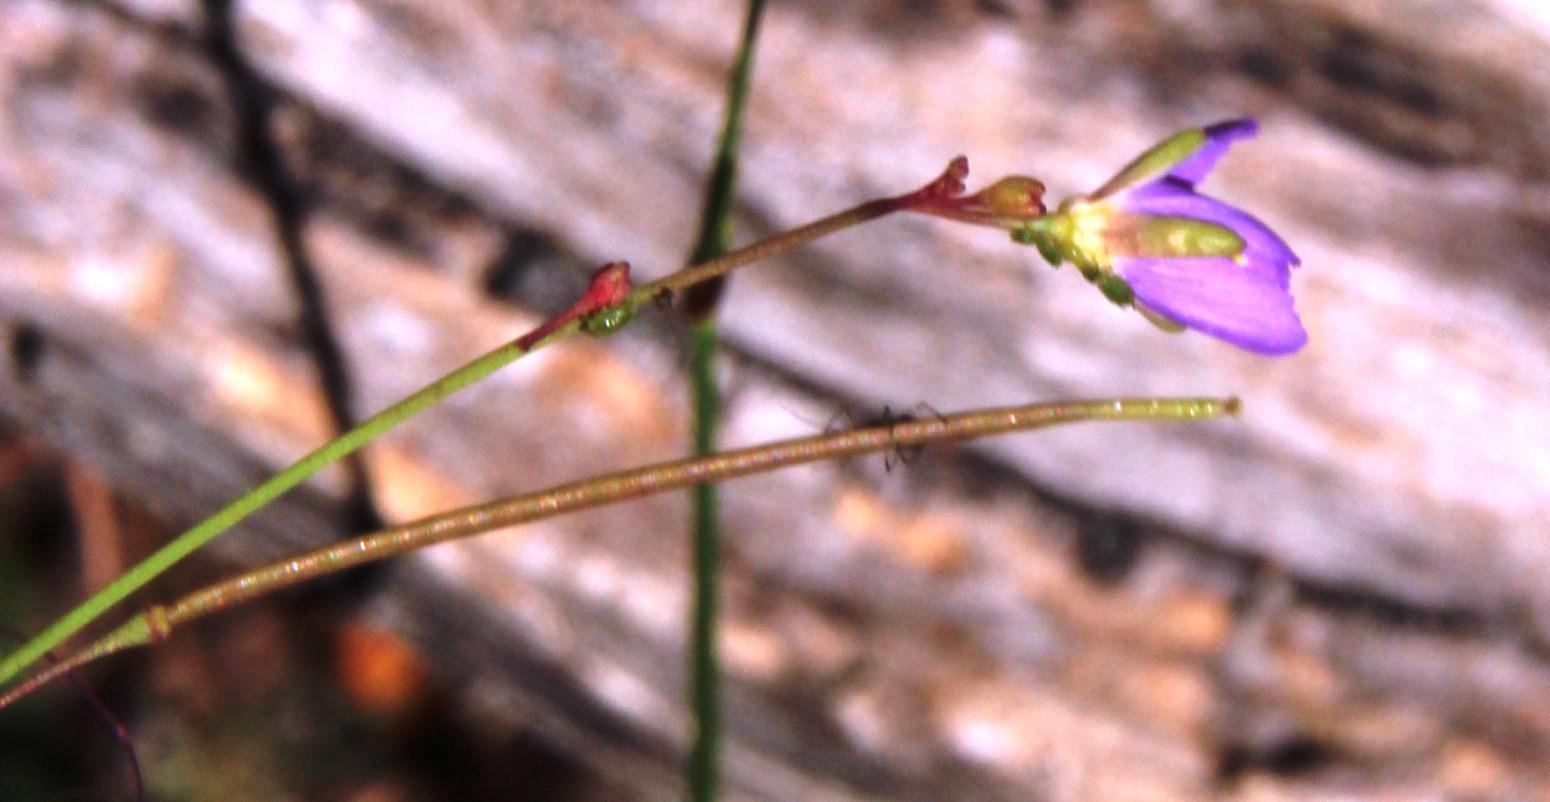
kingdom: Plantae
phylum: Tracheophyta
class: Magnoliopsida
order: Brassicales
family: Brassicaceae
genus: Heliophila
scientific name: Heliophila adpressa
